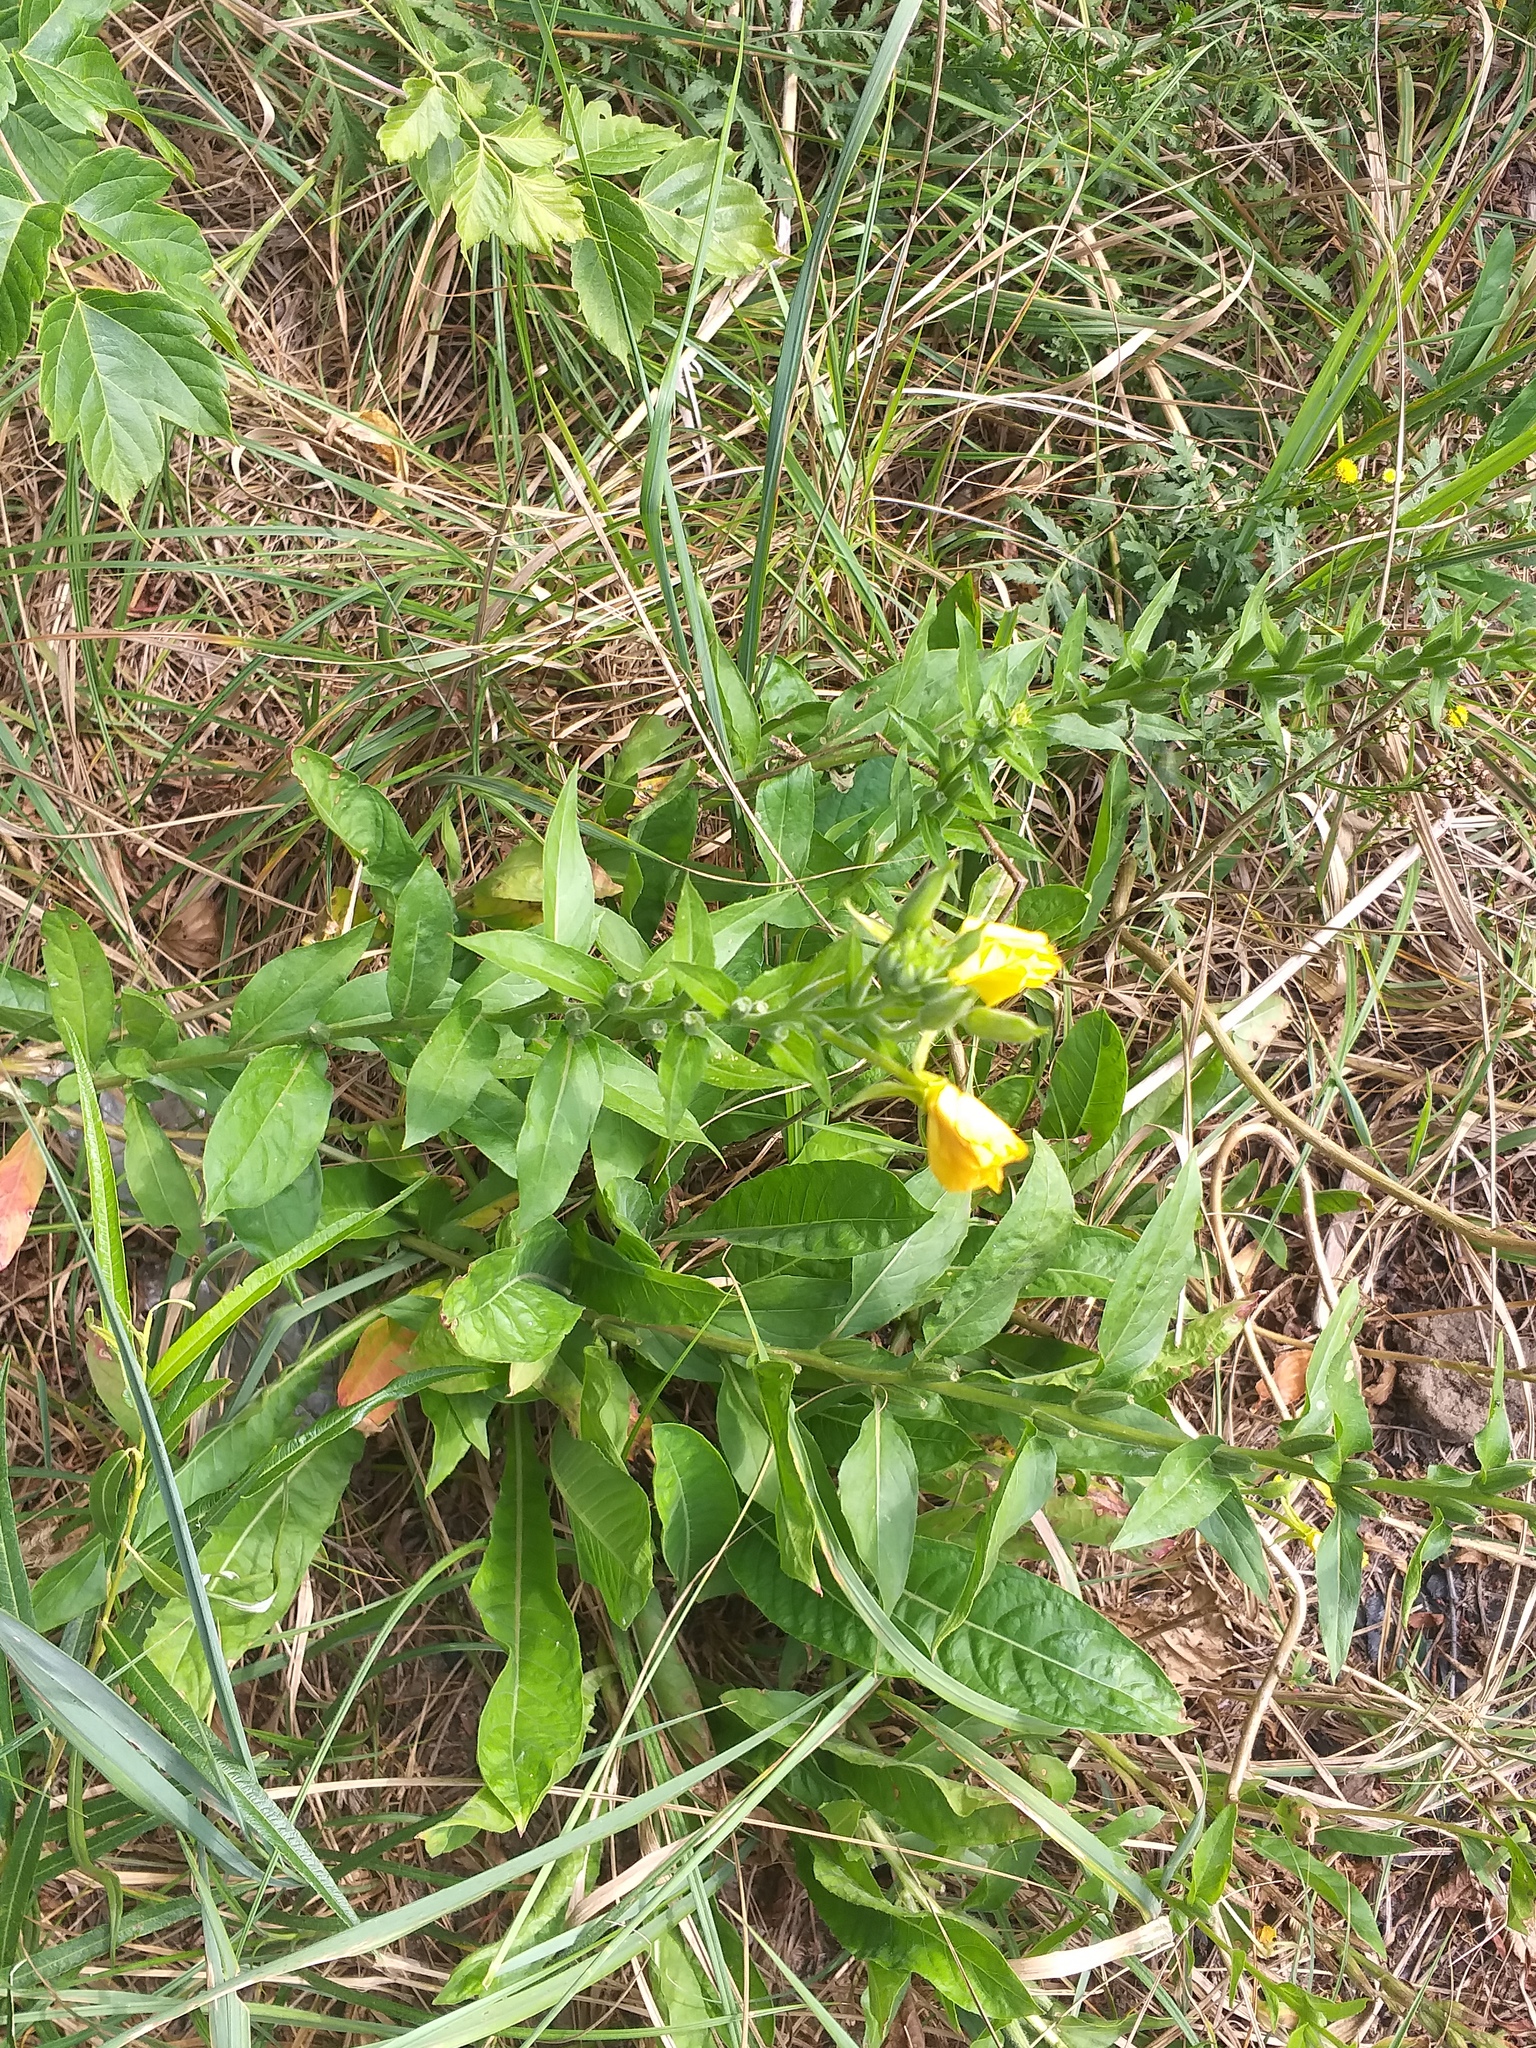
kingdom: Plantae
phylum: Tracheophyta
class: Magnoliopsida
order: Myrtales
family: Onagraceae
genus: Oenothera
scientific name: Oenothera biennis
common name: Common evening-primrose
